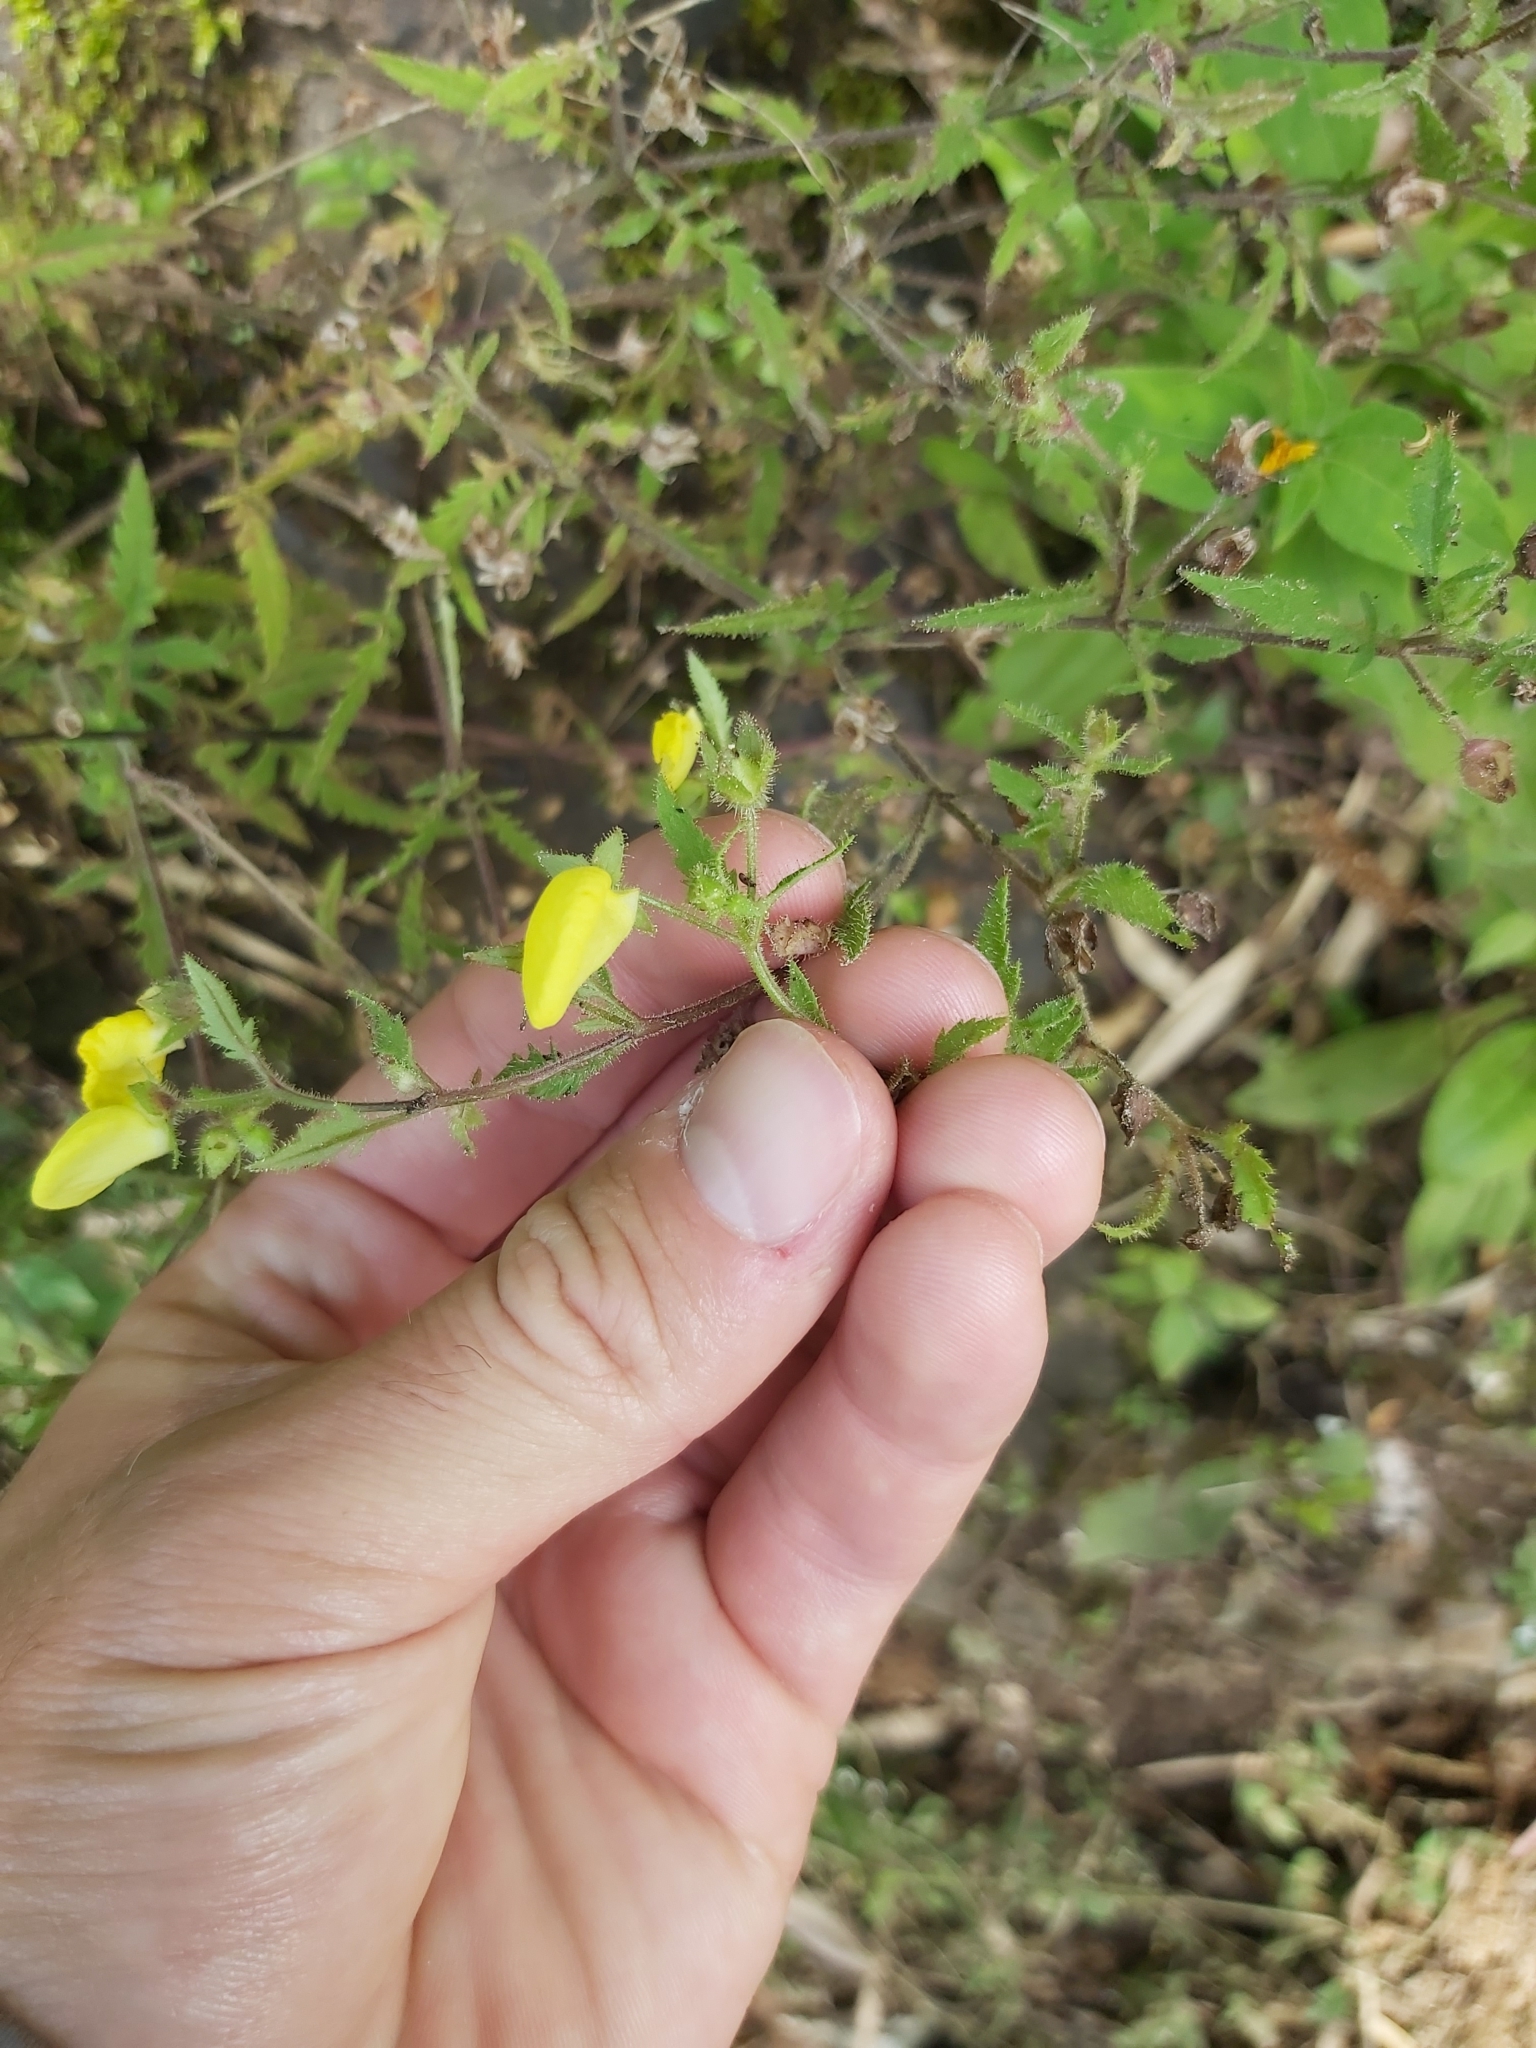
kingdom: Plantae
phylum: Tracheophyta
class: Magnoliopsida
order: Lamiales
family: Calceolariaceae
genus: Calceolaria
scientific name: Calceolaria tripartita
